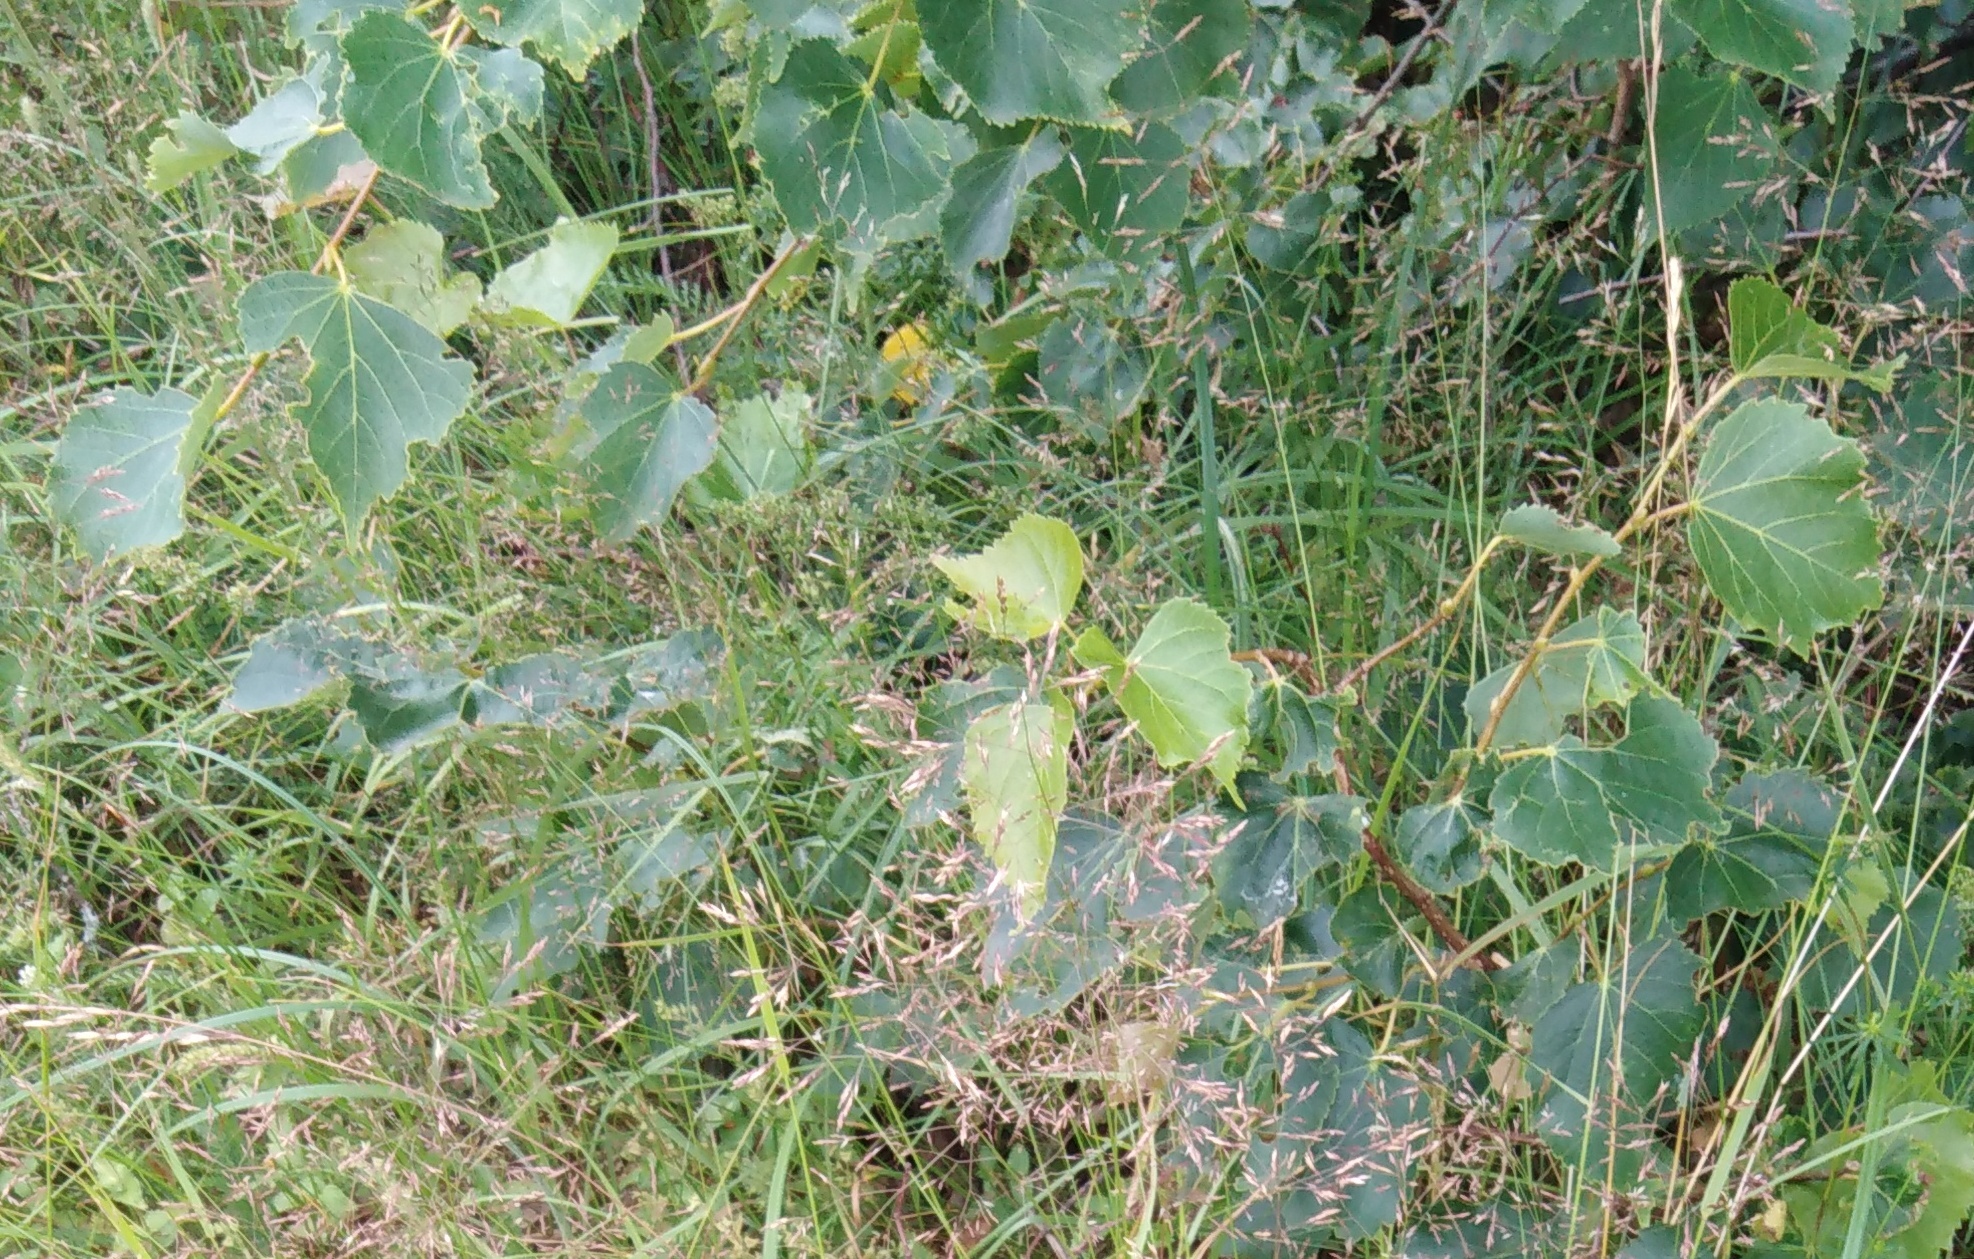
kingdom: Plantae
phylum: Tracheophyta
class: Magnoliopsida
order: Malvales
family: Malvaceae
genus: Tilia
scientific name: Tilia cordata
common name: Small-leaved lime
